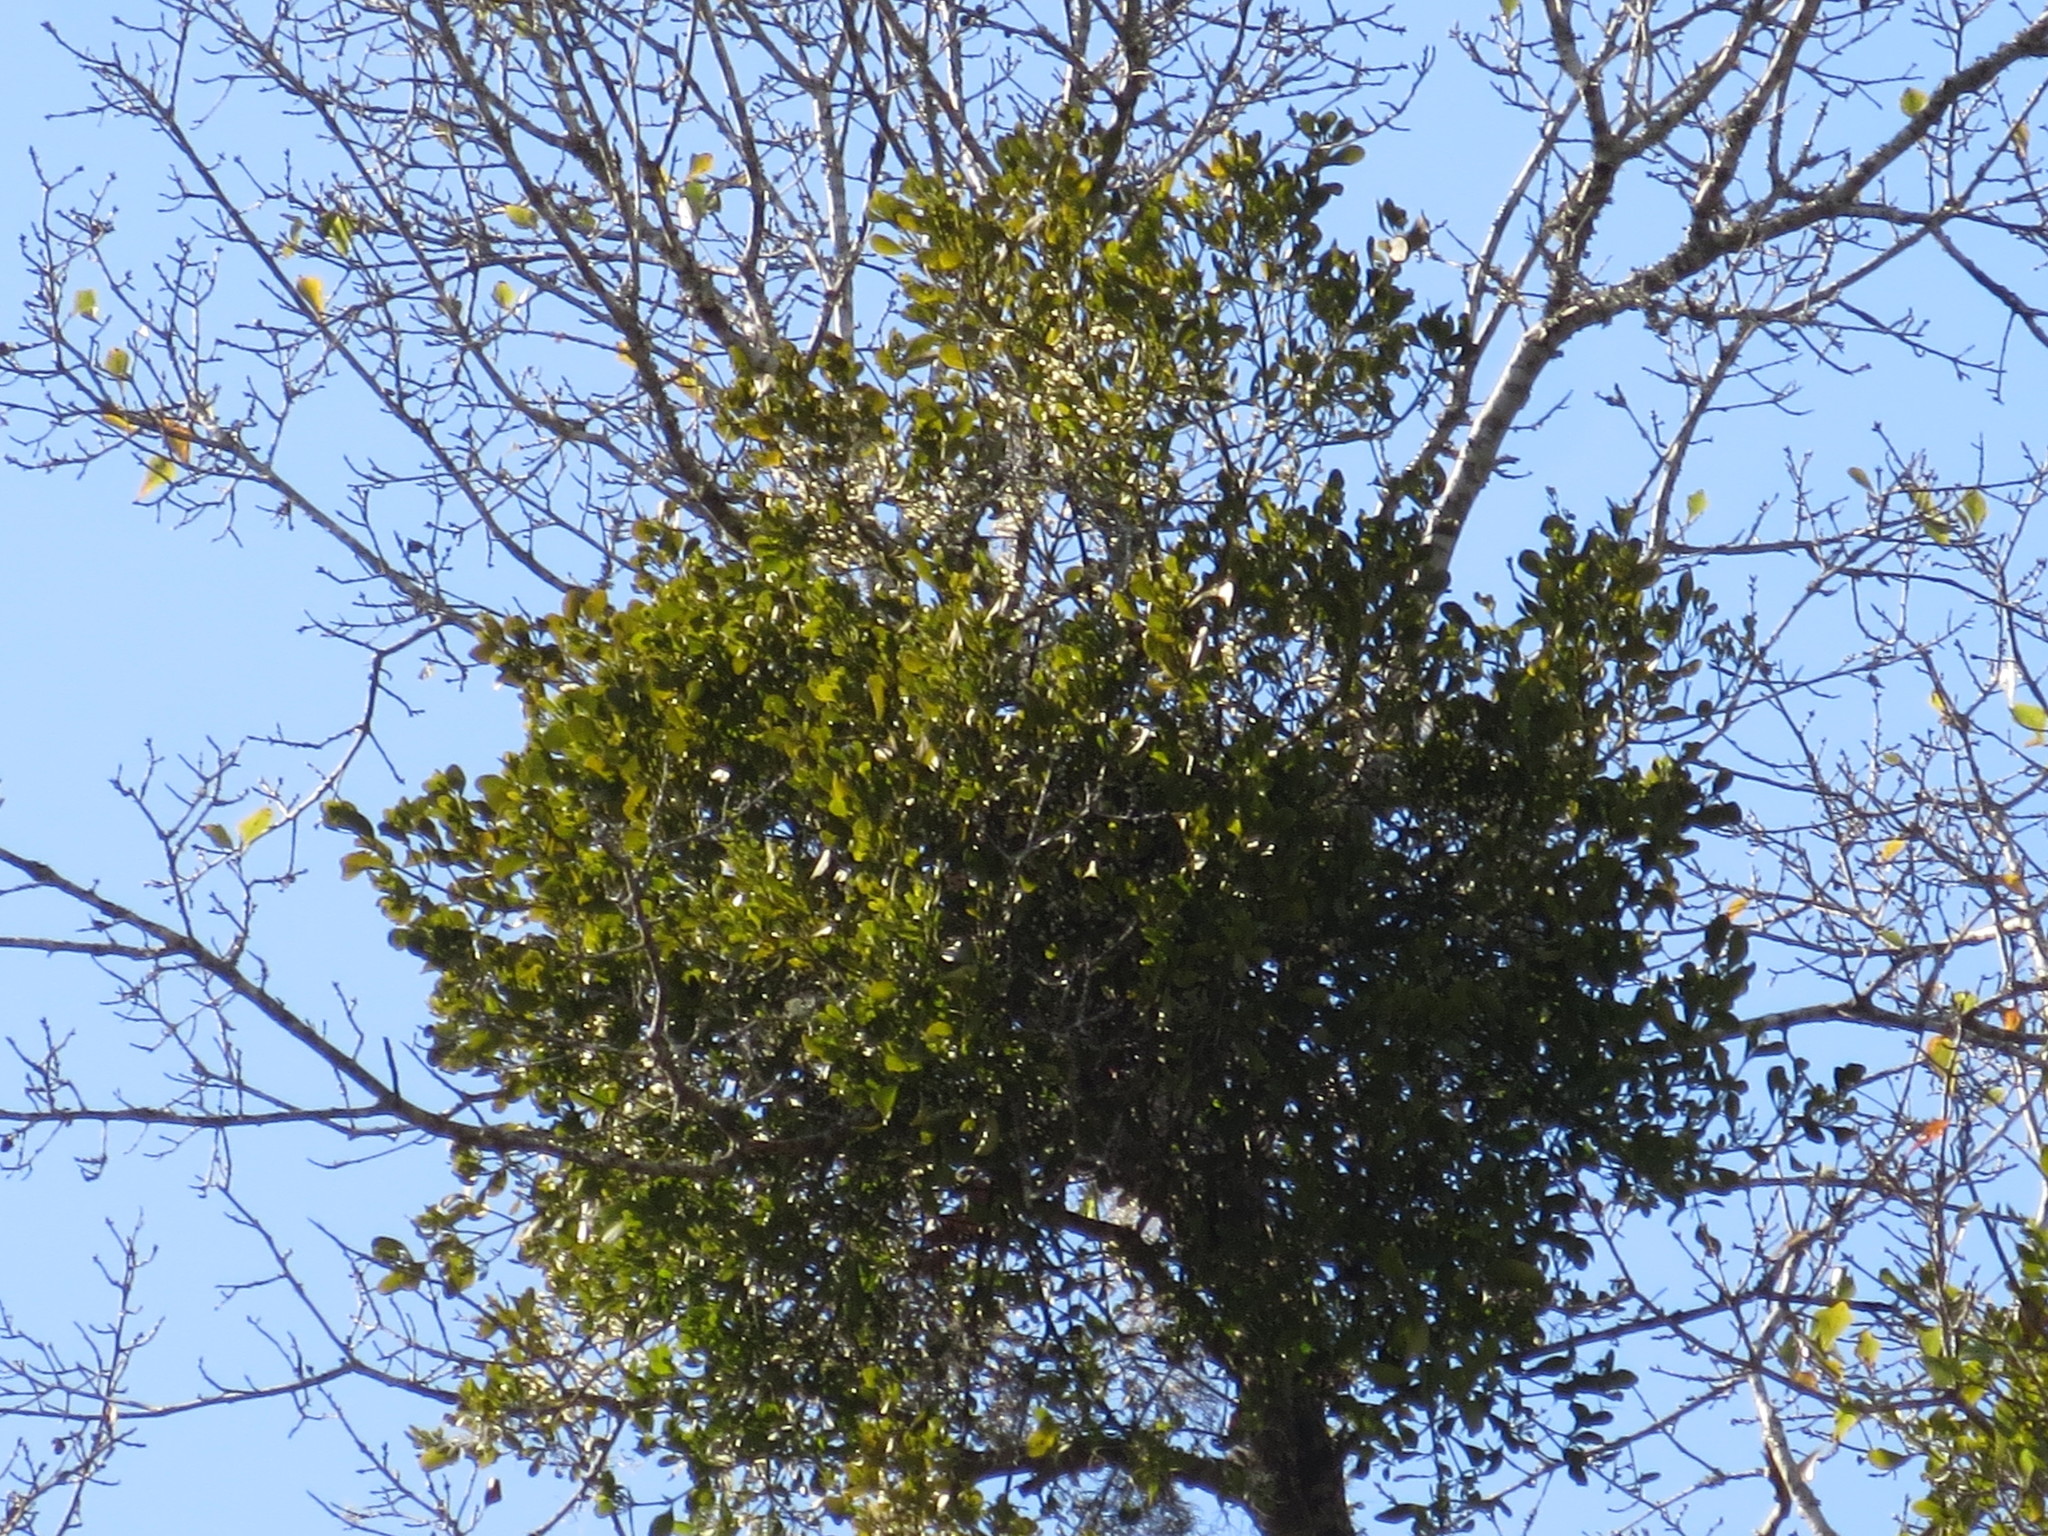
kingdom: Plantae
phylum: Tracheophyta
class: Magnoliopsida
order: Santalales
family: Viscaceae
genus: Phoradendron
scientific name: Phoradendron leucarpum
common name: Pacific mistletoe
